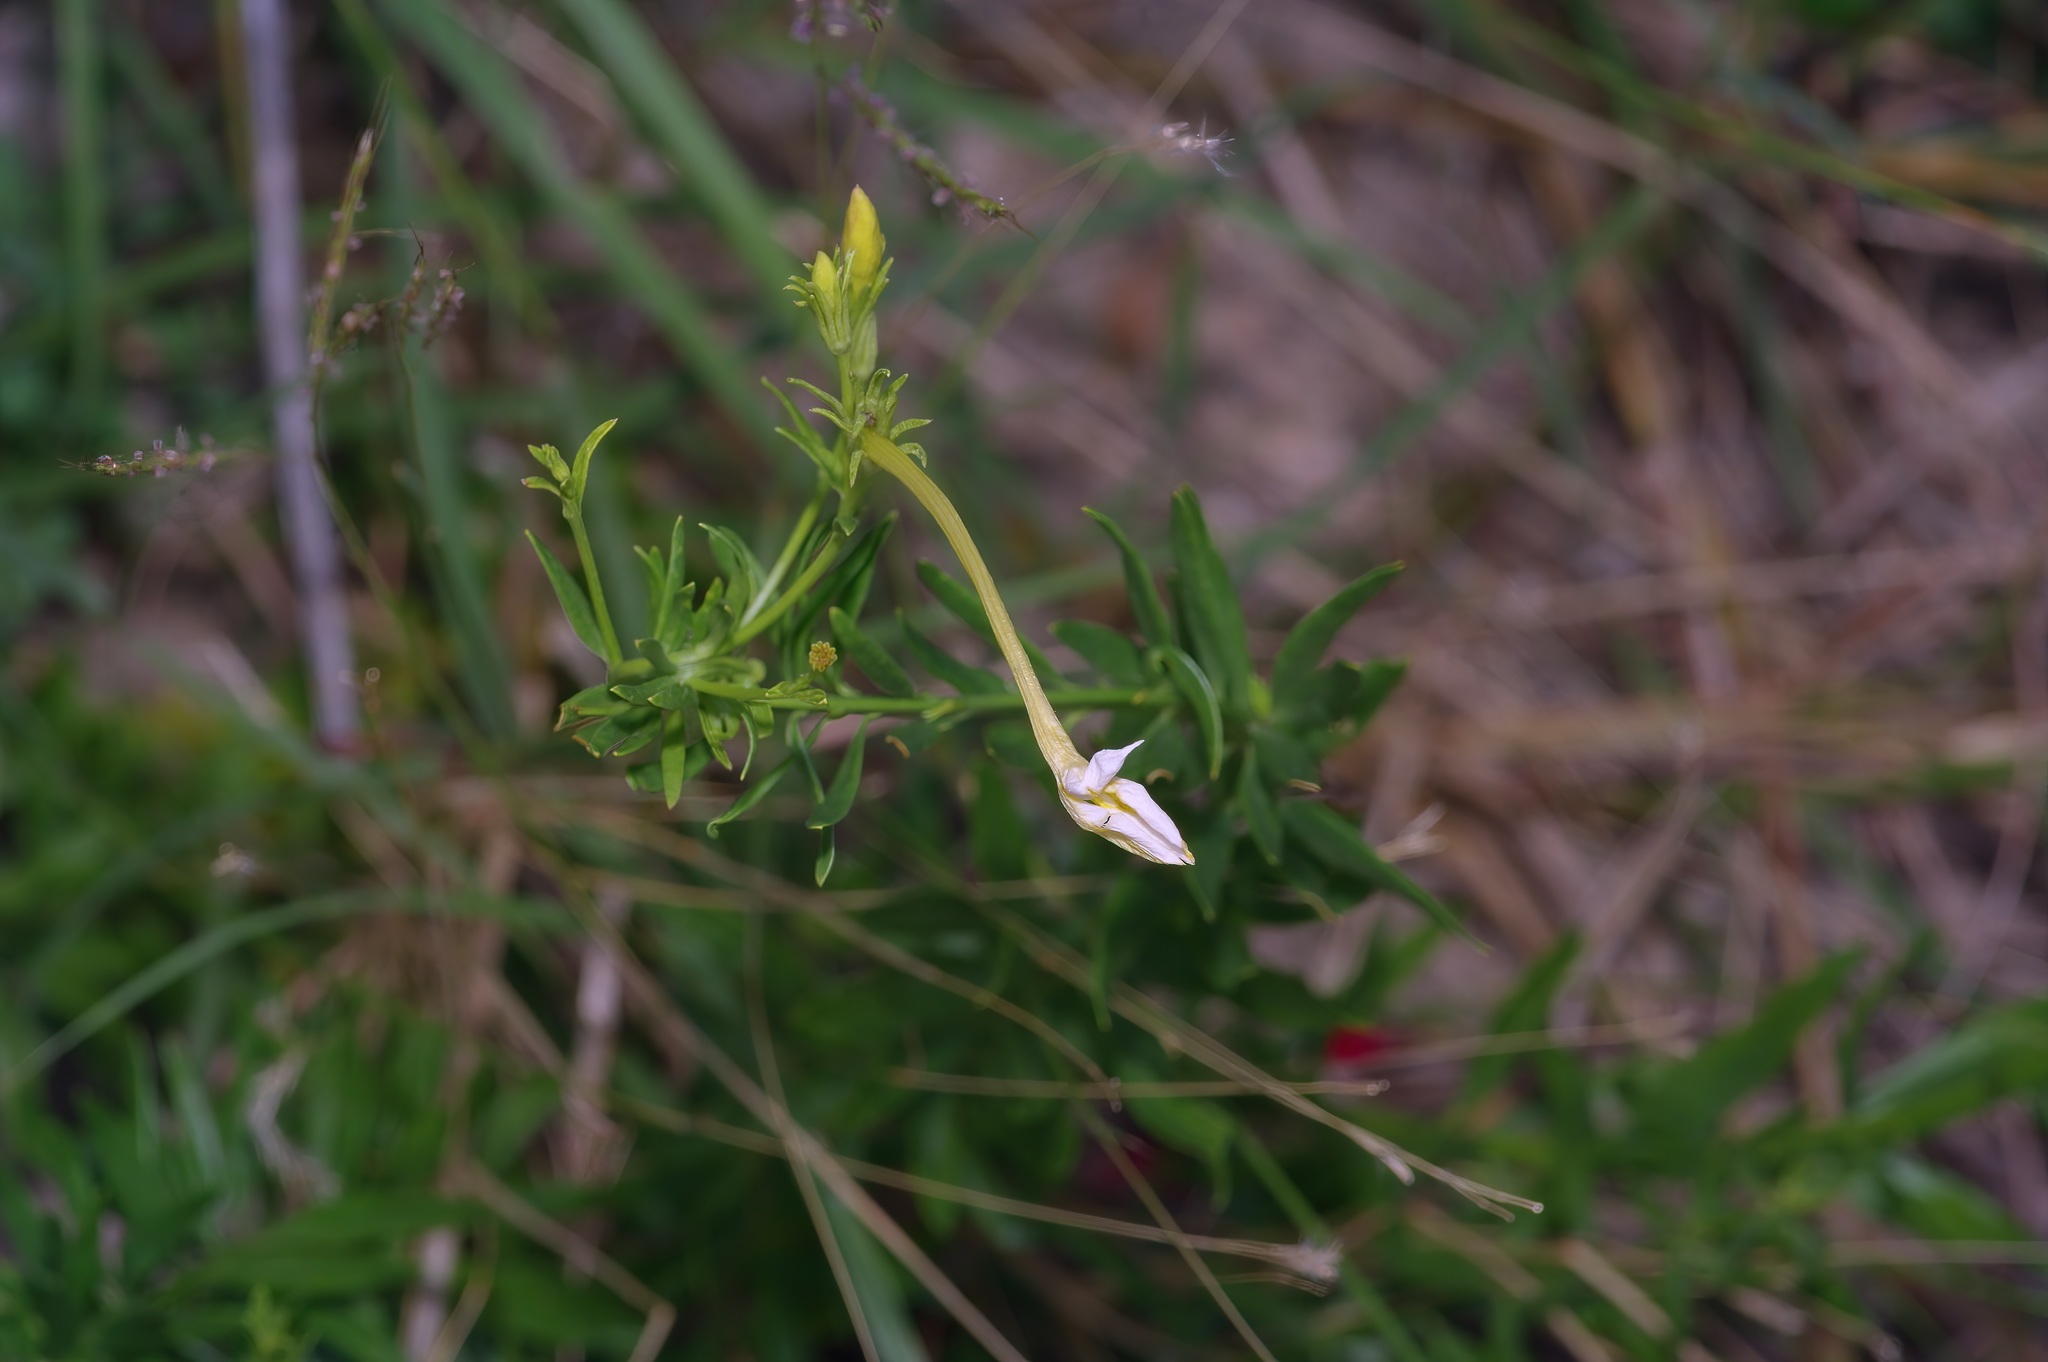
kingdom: Plantae
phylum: Tracheophyta
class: Magnoliopsida
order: Lamiales
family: Oleaceae
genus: Menodora
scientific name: Menodora longiflora
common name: Showy menodora
